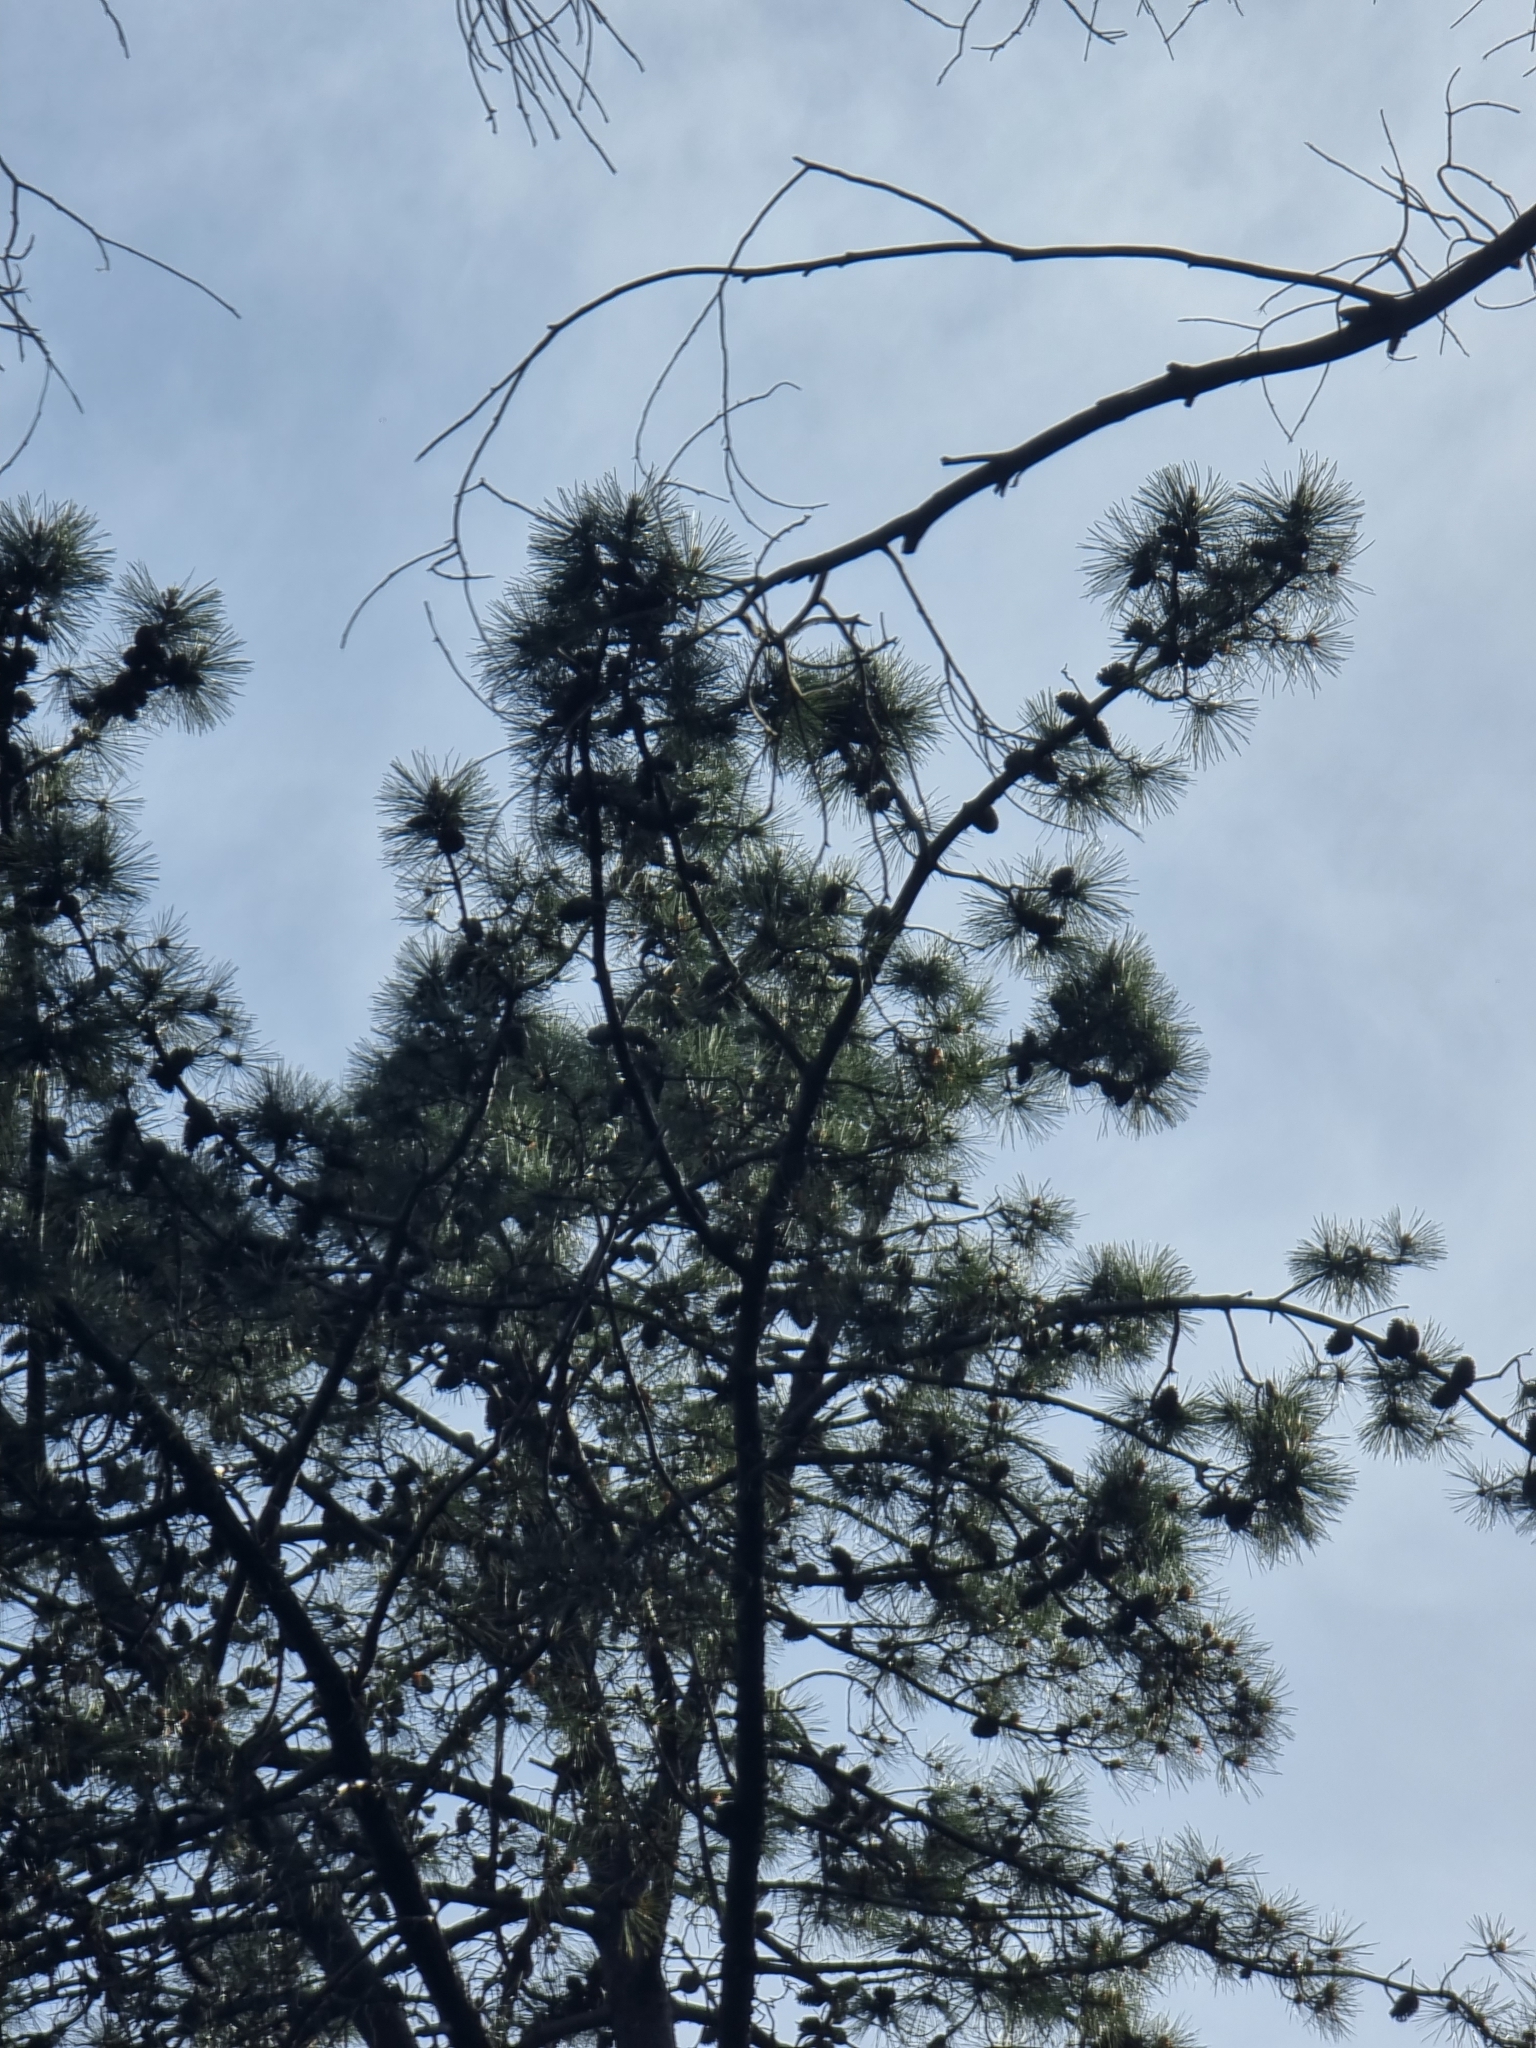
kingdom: Plantae
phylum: Tracheophyta
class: Pinopsida
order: Pinales
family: Pinaceae
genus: Pinus
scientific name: Pinus pinaster
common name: Maritime pine
